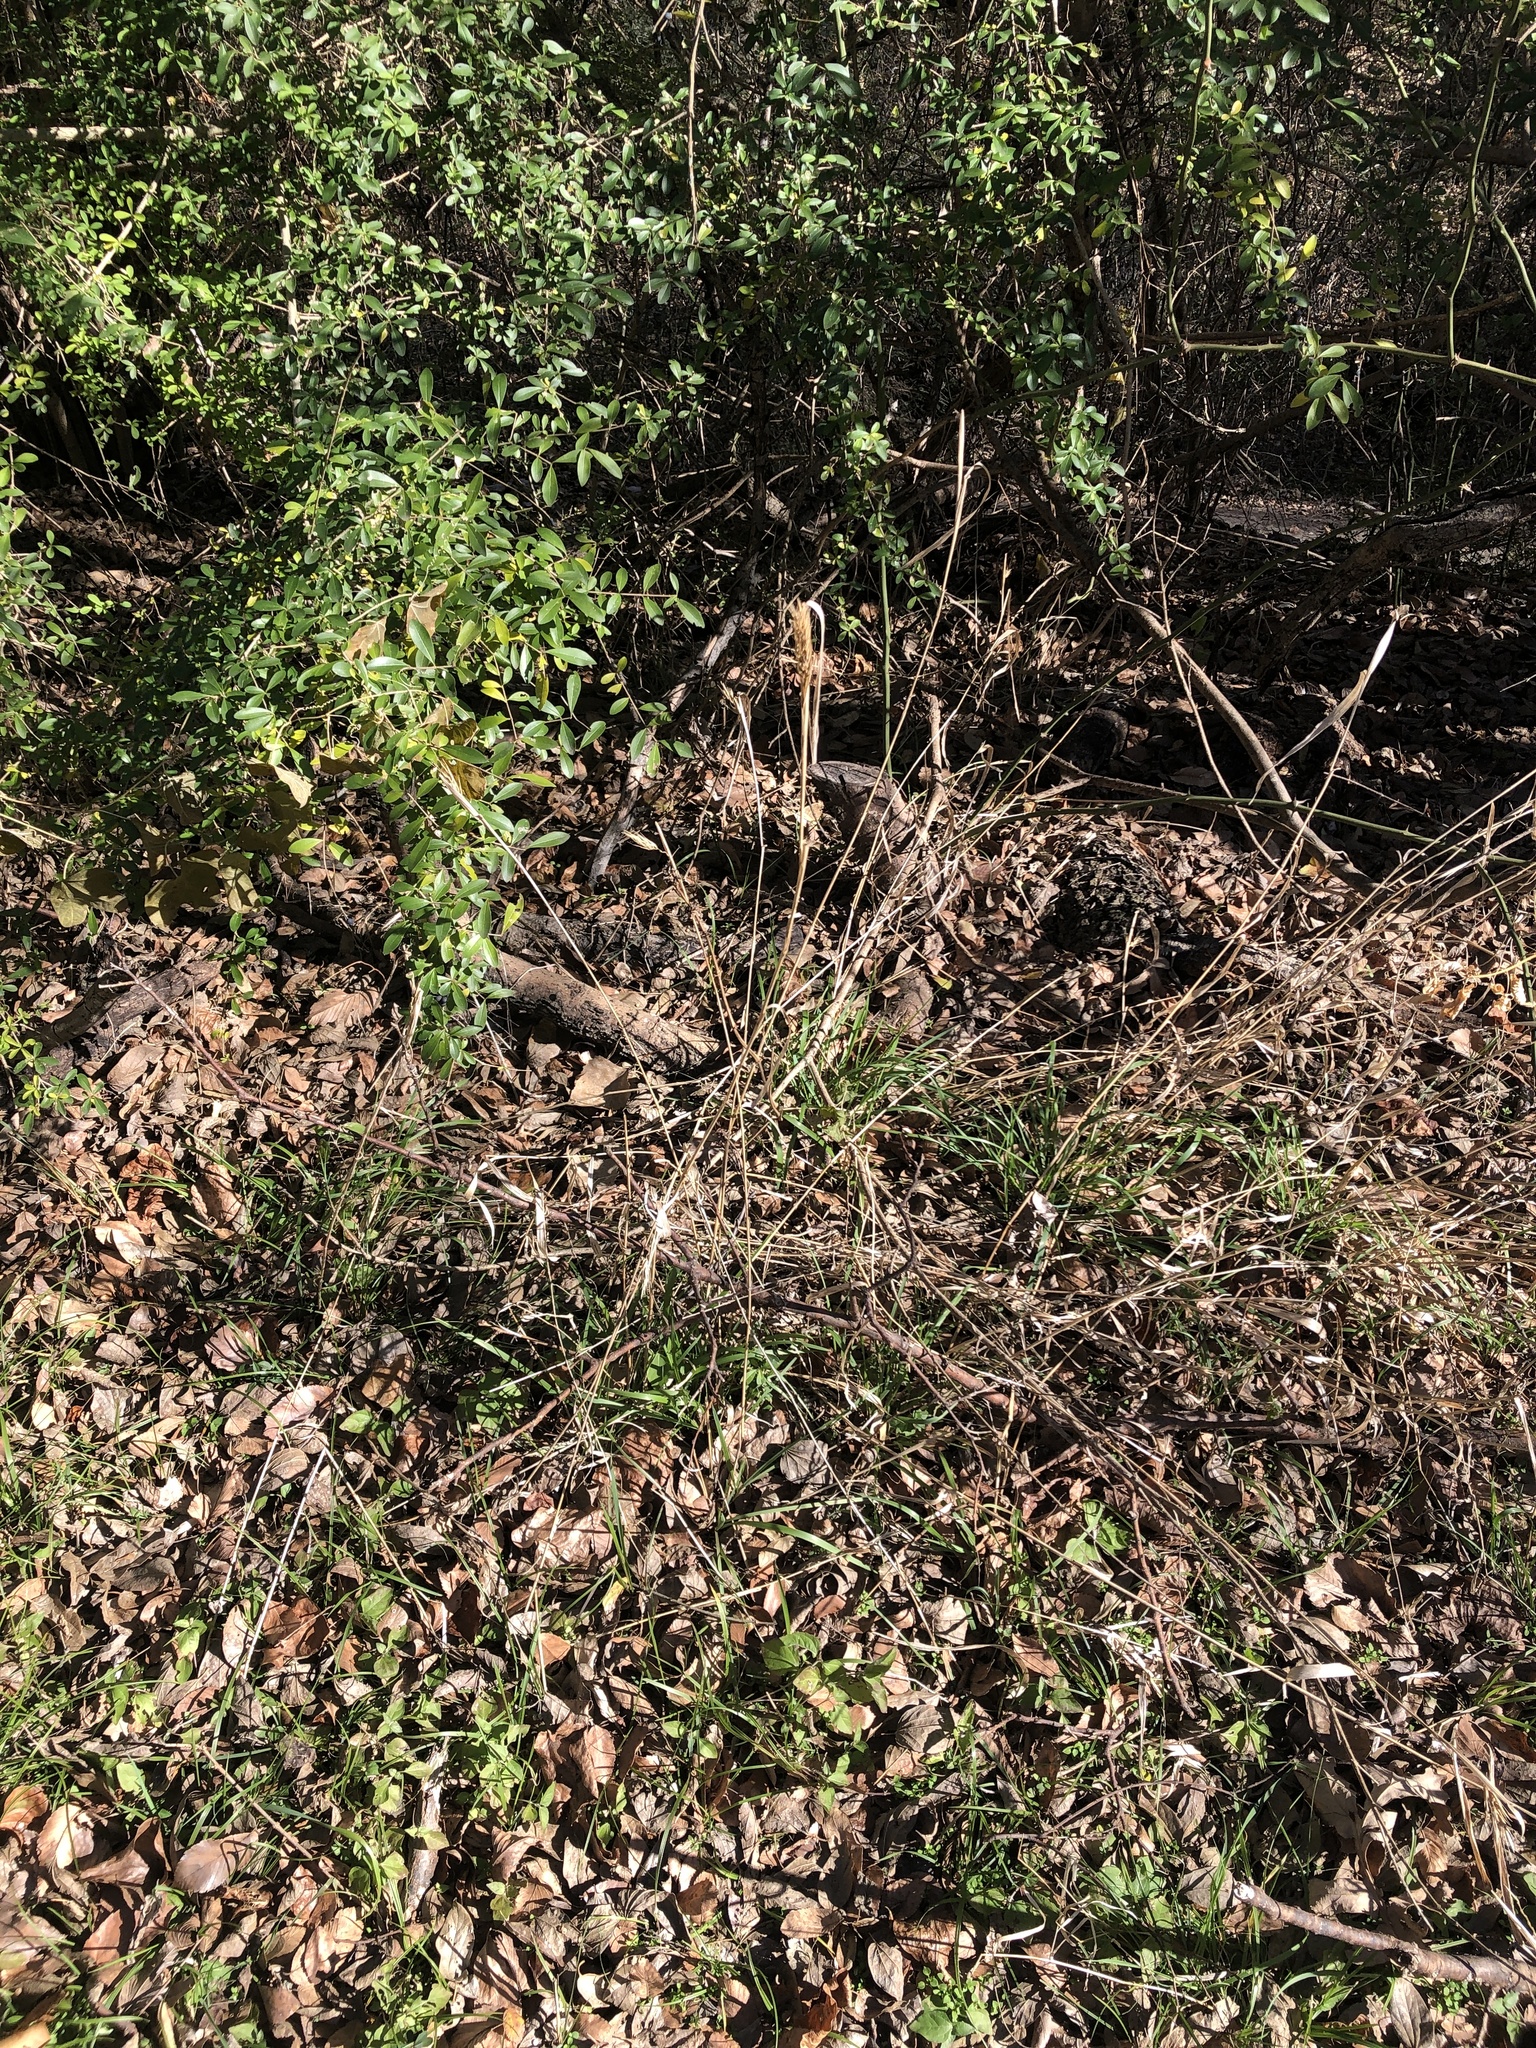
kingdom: Plantae
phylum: Tracheophyta
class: Liliopsida
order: Poales
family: Poaceae
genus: Elymus
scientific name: Elymus virginicus
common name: Common eastern wildrye
